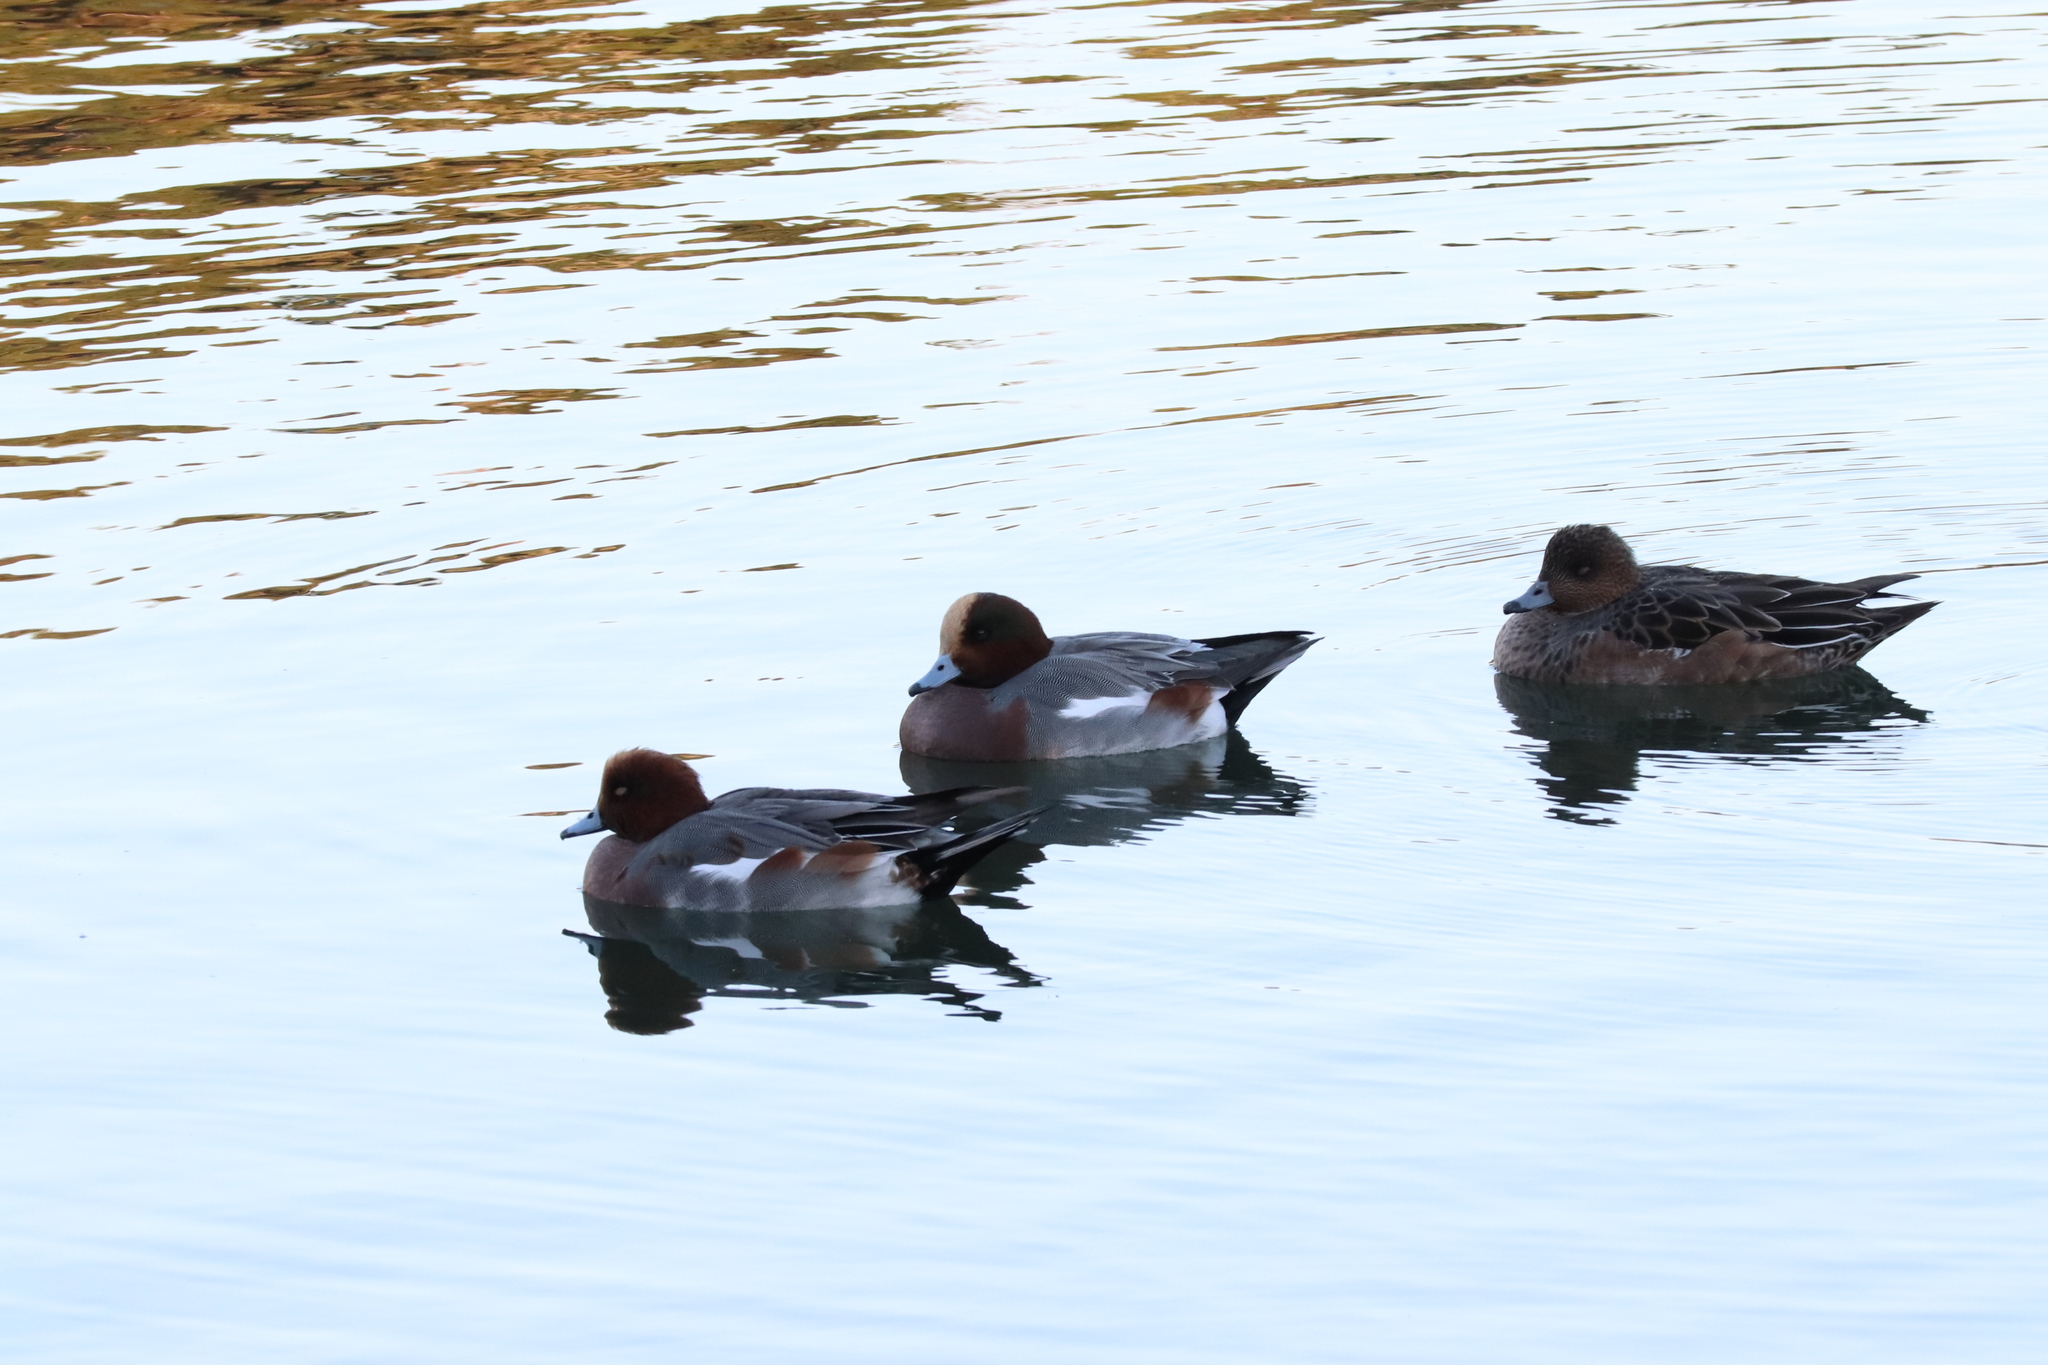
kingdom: Animalia
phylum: Chordata
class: Aves
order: Anseriformes
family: Anatidae
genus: Mareca
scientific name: Mareca penelope
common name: Eurasian wigeon
